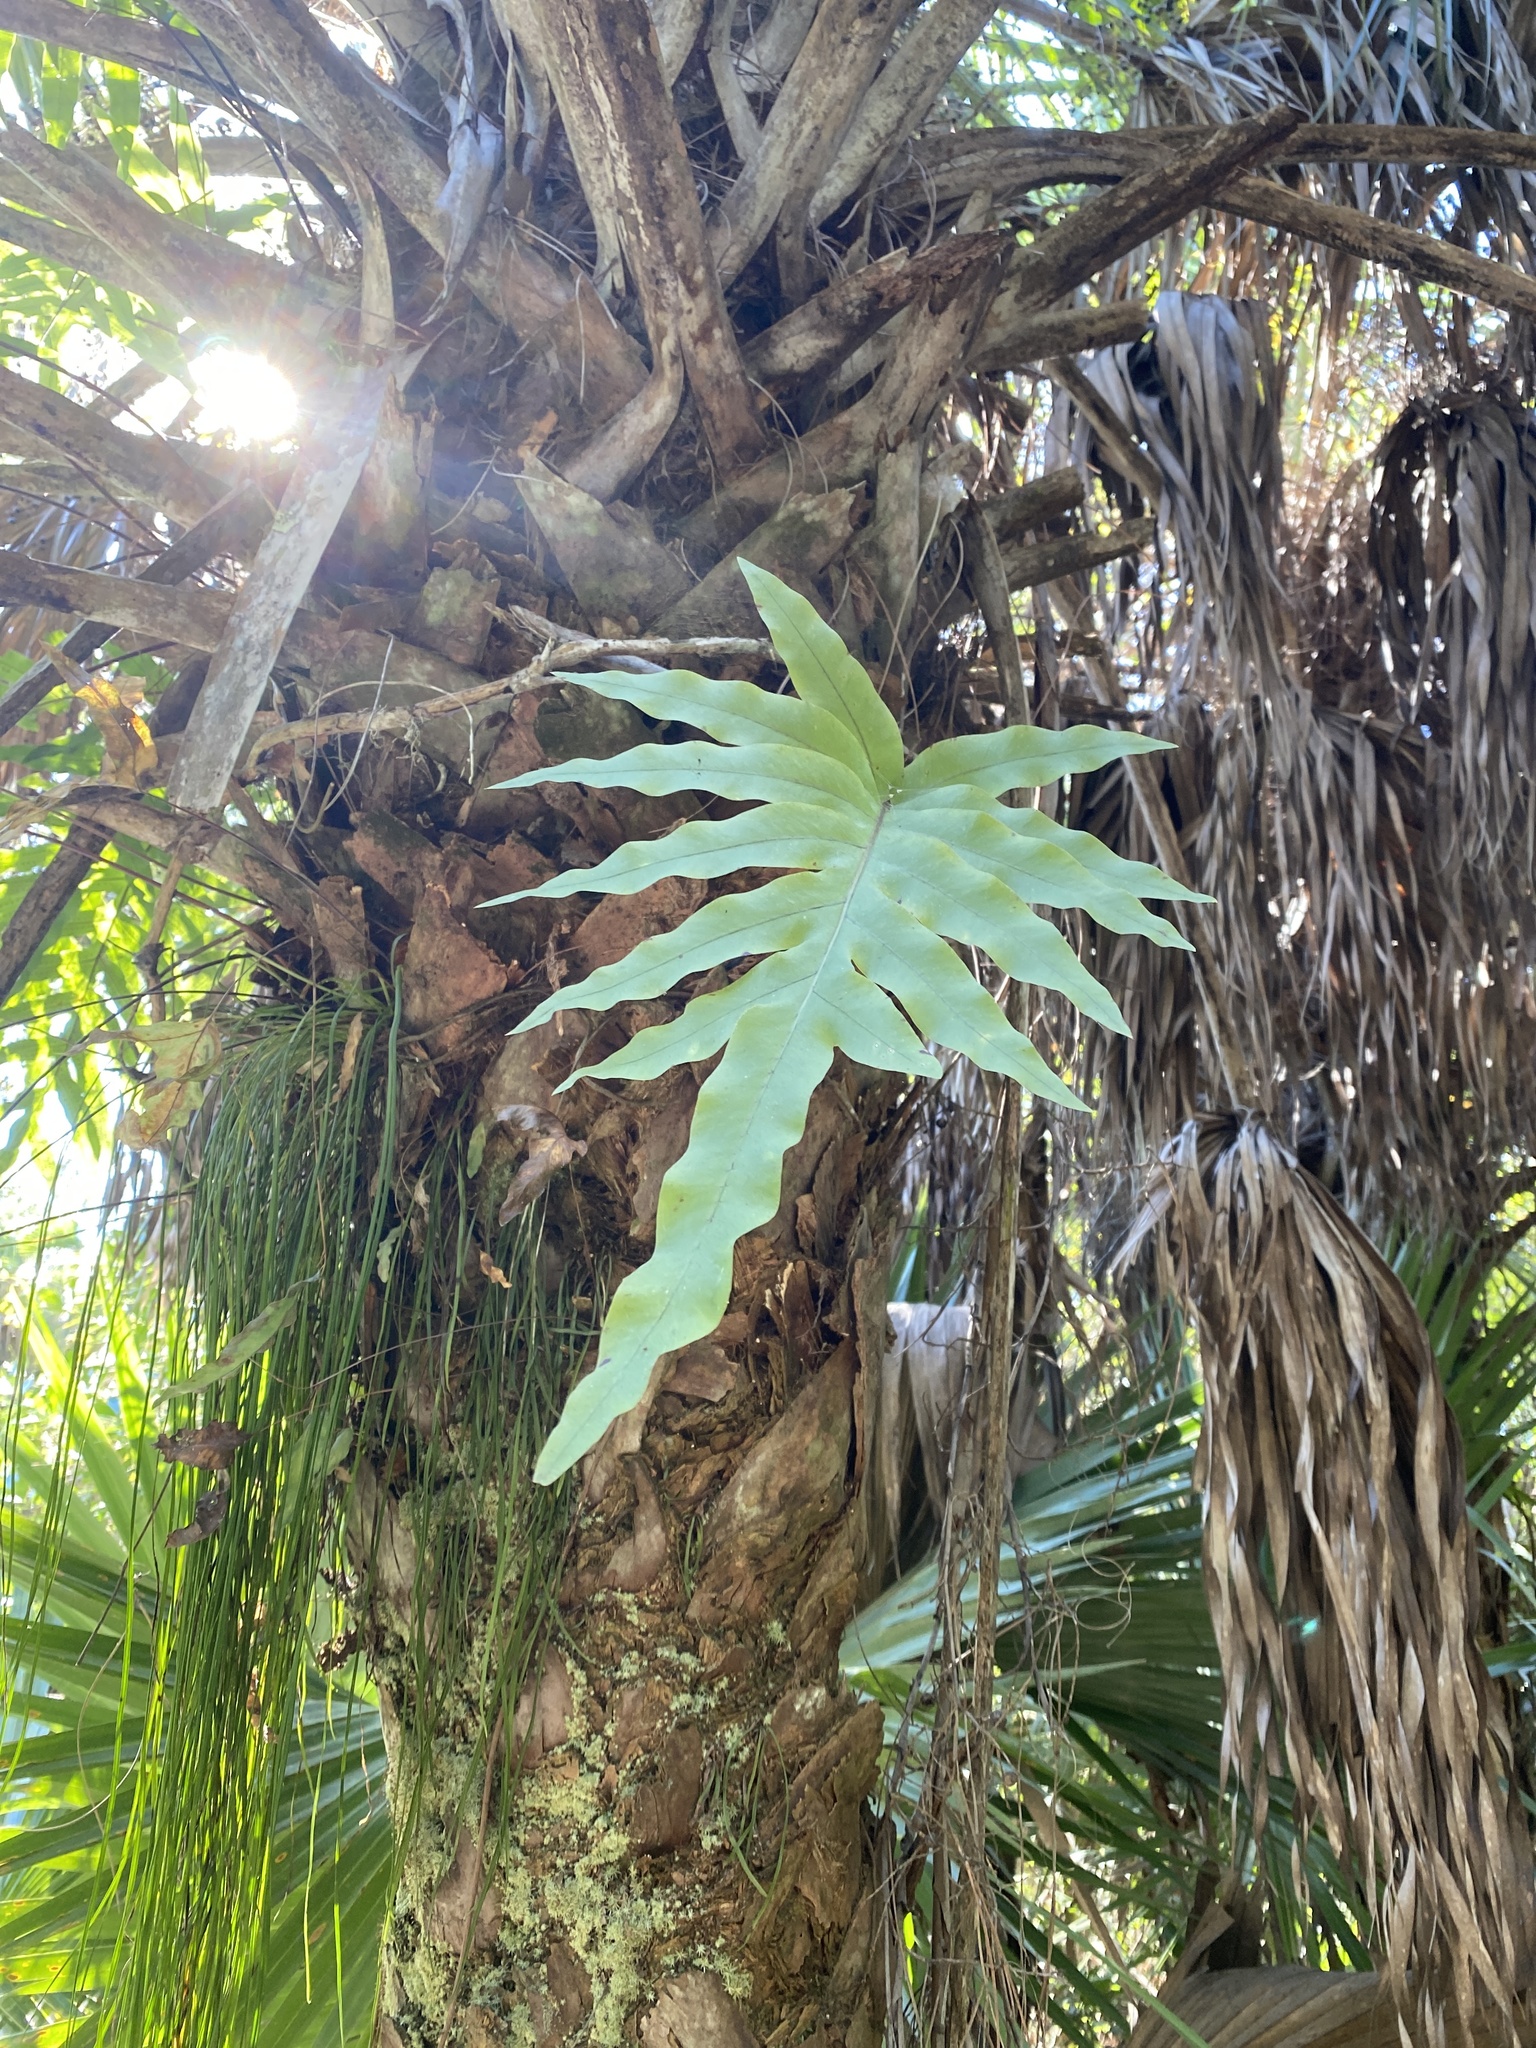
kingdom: Plantae
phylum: Tracheophyta
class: Polypodiopsida
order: Polypodiales
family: Polypodiaceae
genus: Phlebodium
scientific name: Phlebodium aureum
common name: Gold-foot fern
